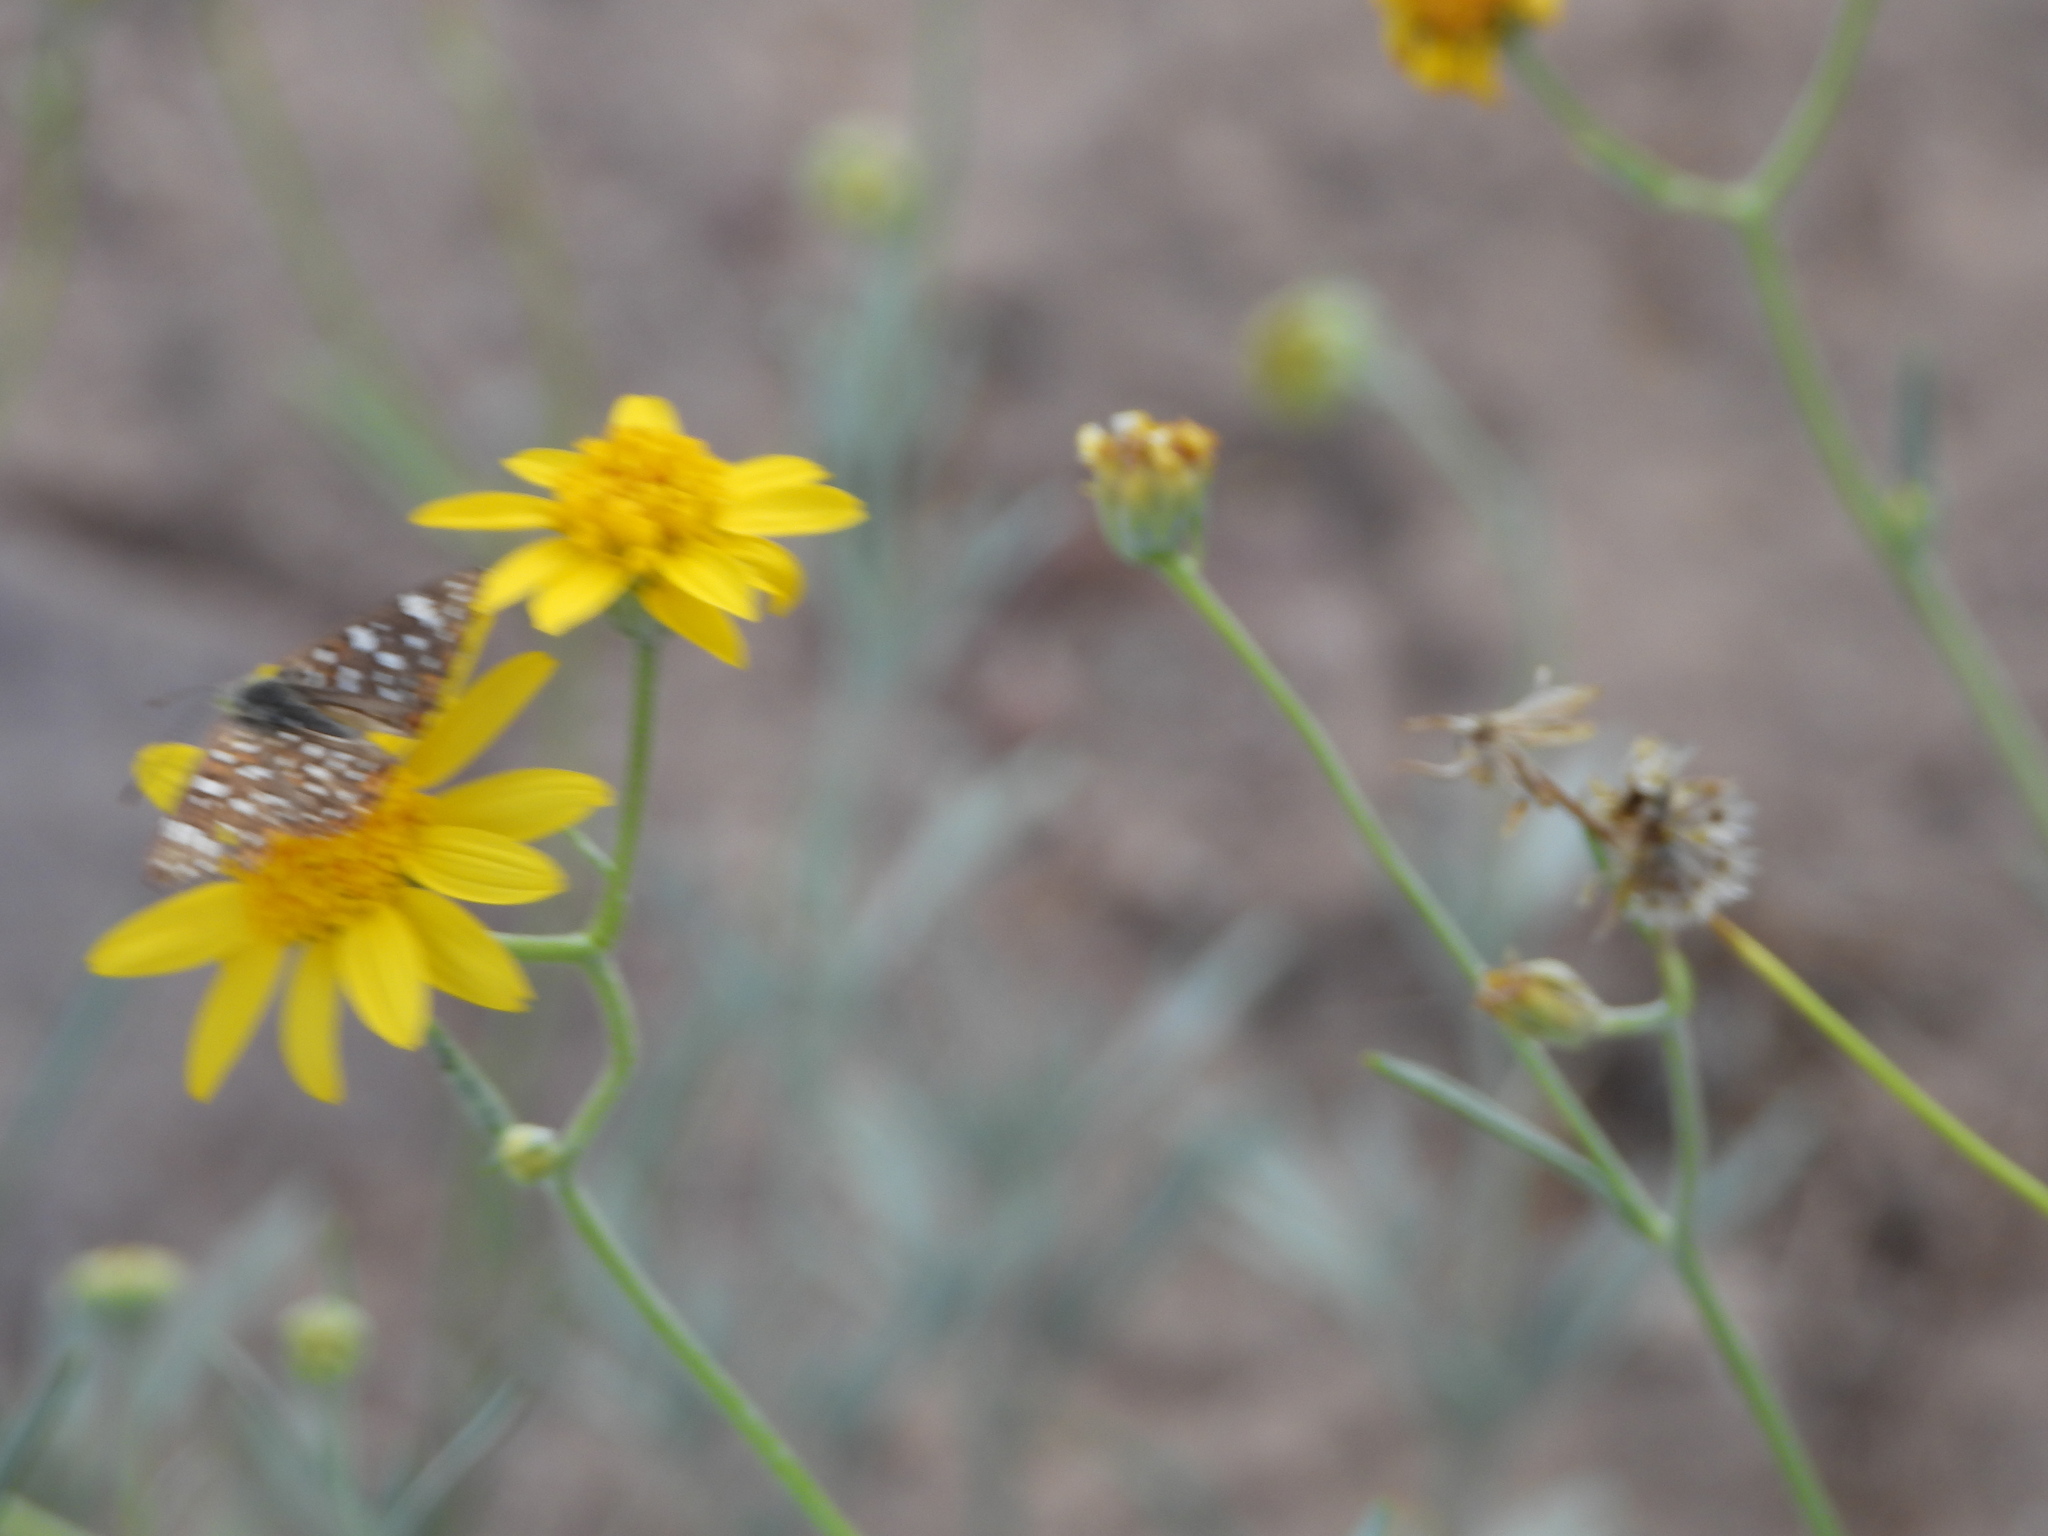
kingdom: Animalia
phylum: Arthropoda
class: Insecta
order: Lepidoptera
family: Riodinidae
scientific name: Riodinidae
